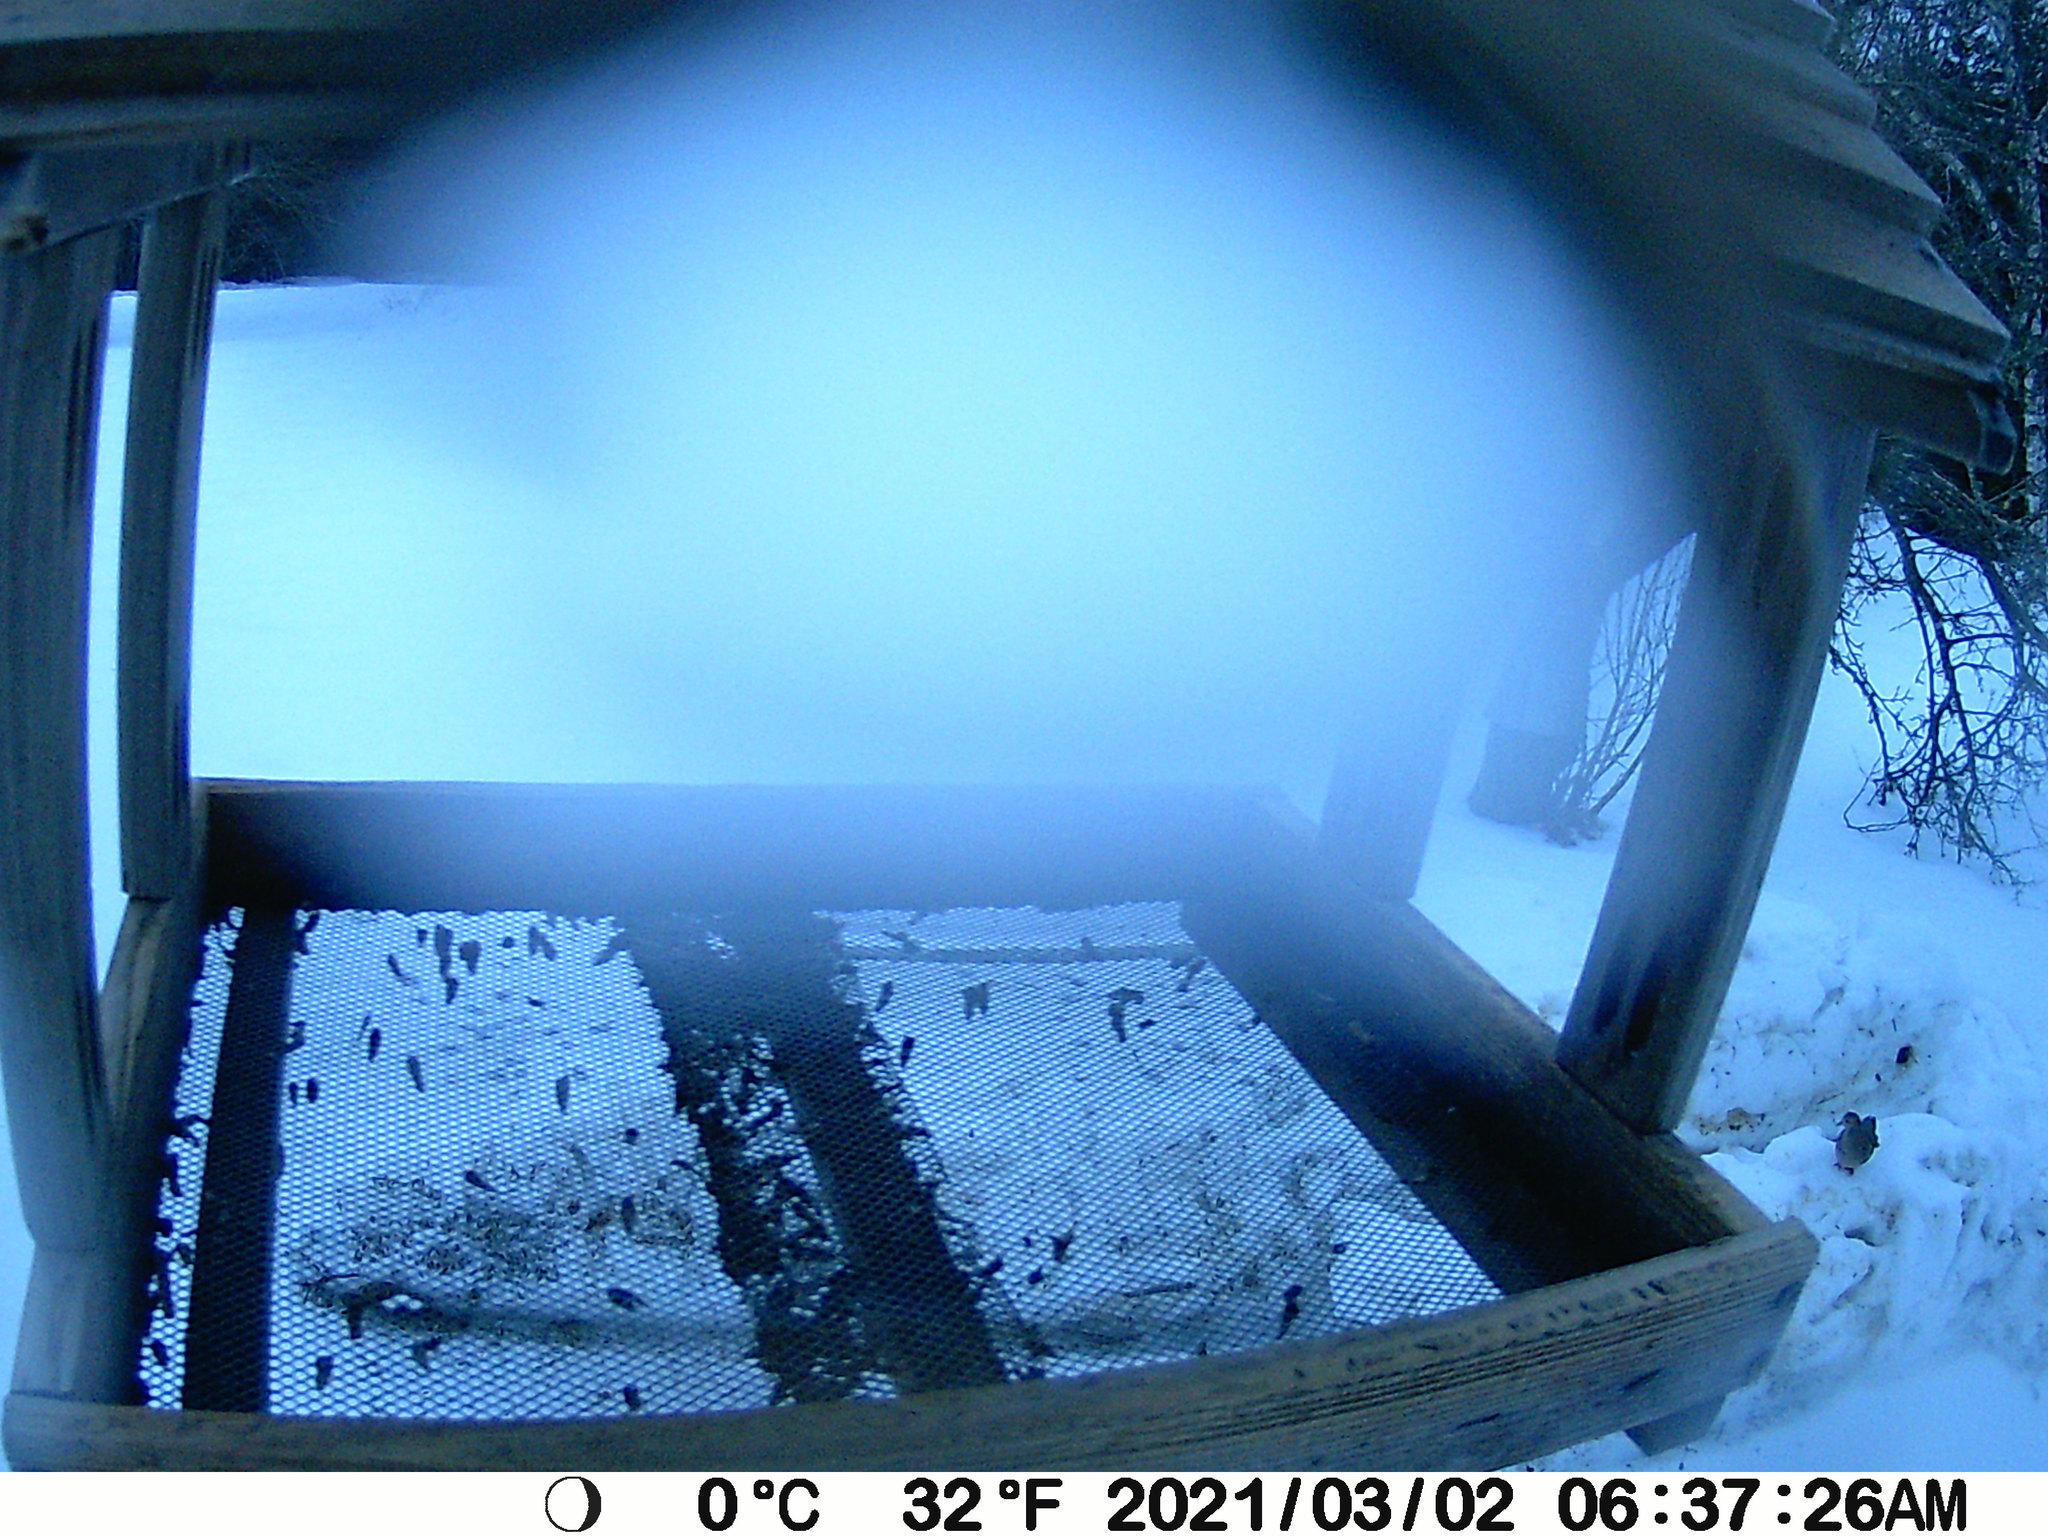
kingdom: Animalia
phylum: Chordata
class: Aves
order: Columbiformes
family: Columbidae
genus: Zenaida
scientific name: Zenaida macroura
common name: Mourning dove
